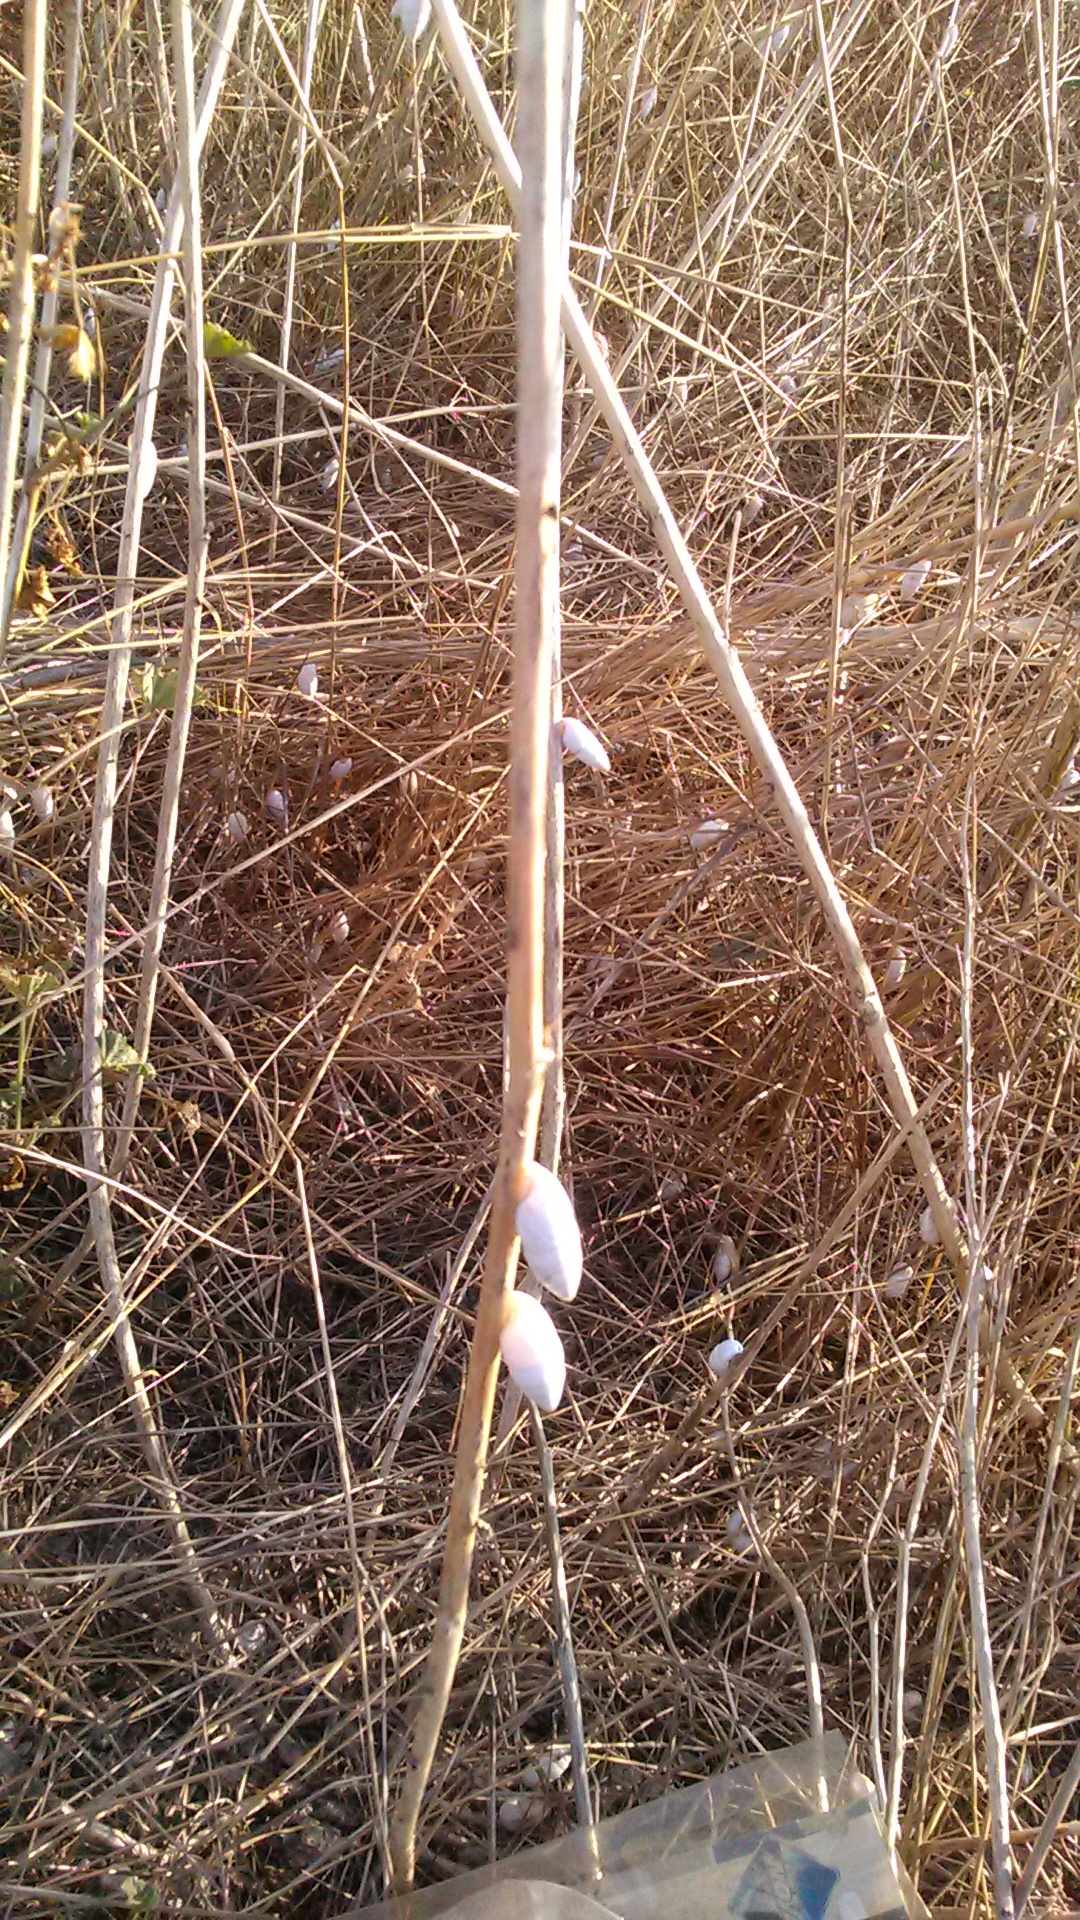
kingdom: Animalia
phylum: Mollusca
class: Gastropoda
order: Stylommatophora
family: Enidae
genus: Brephulopsis
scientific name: Brephulopsis cylindrica
